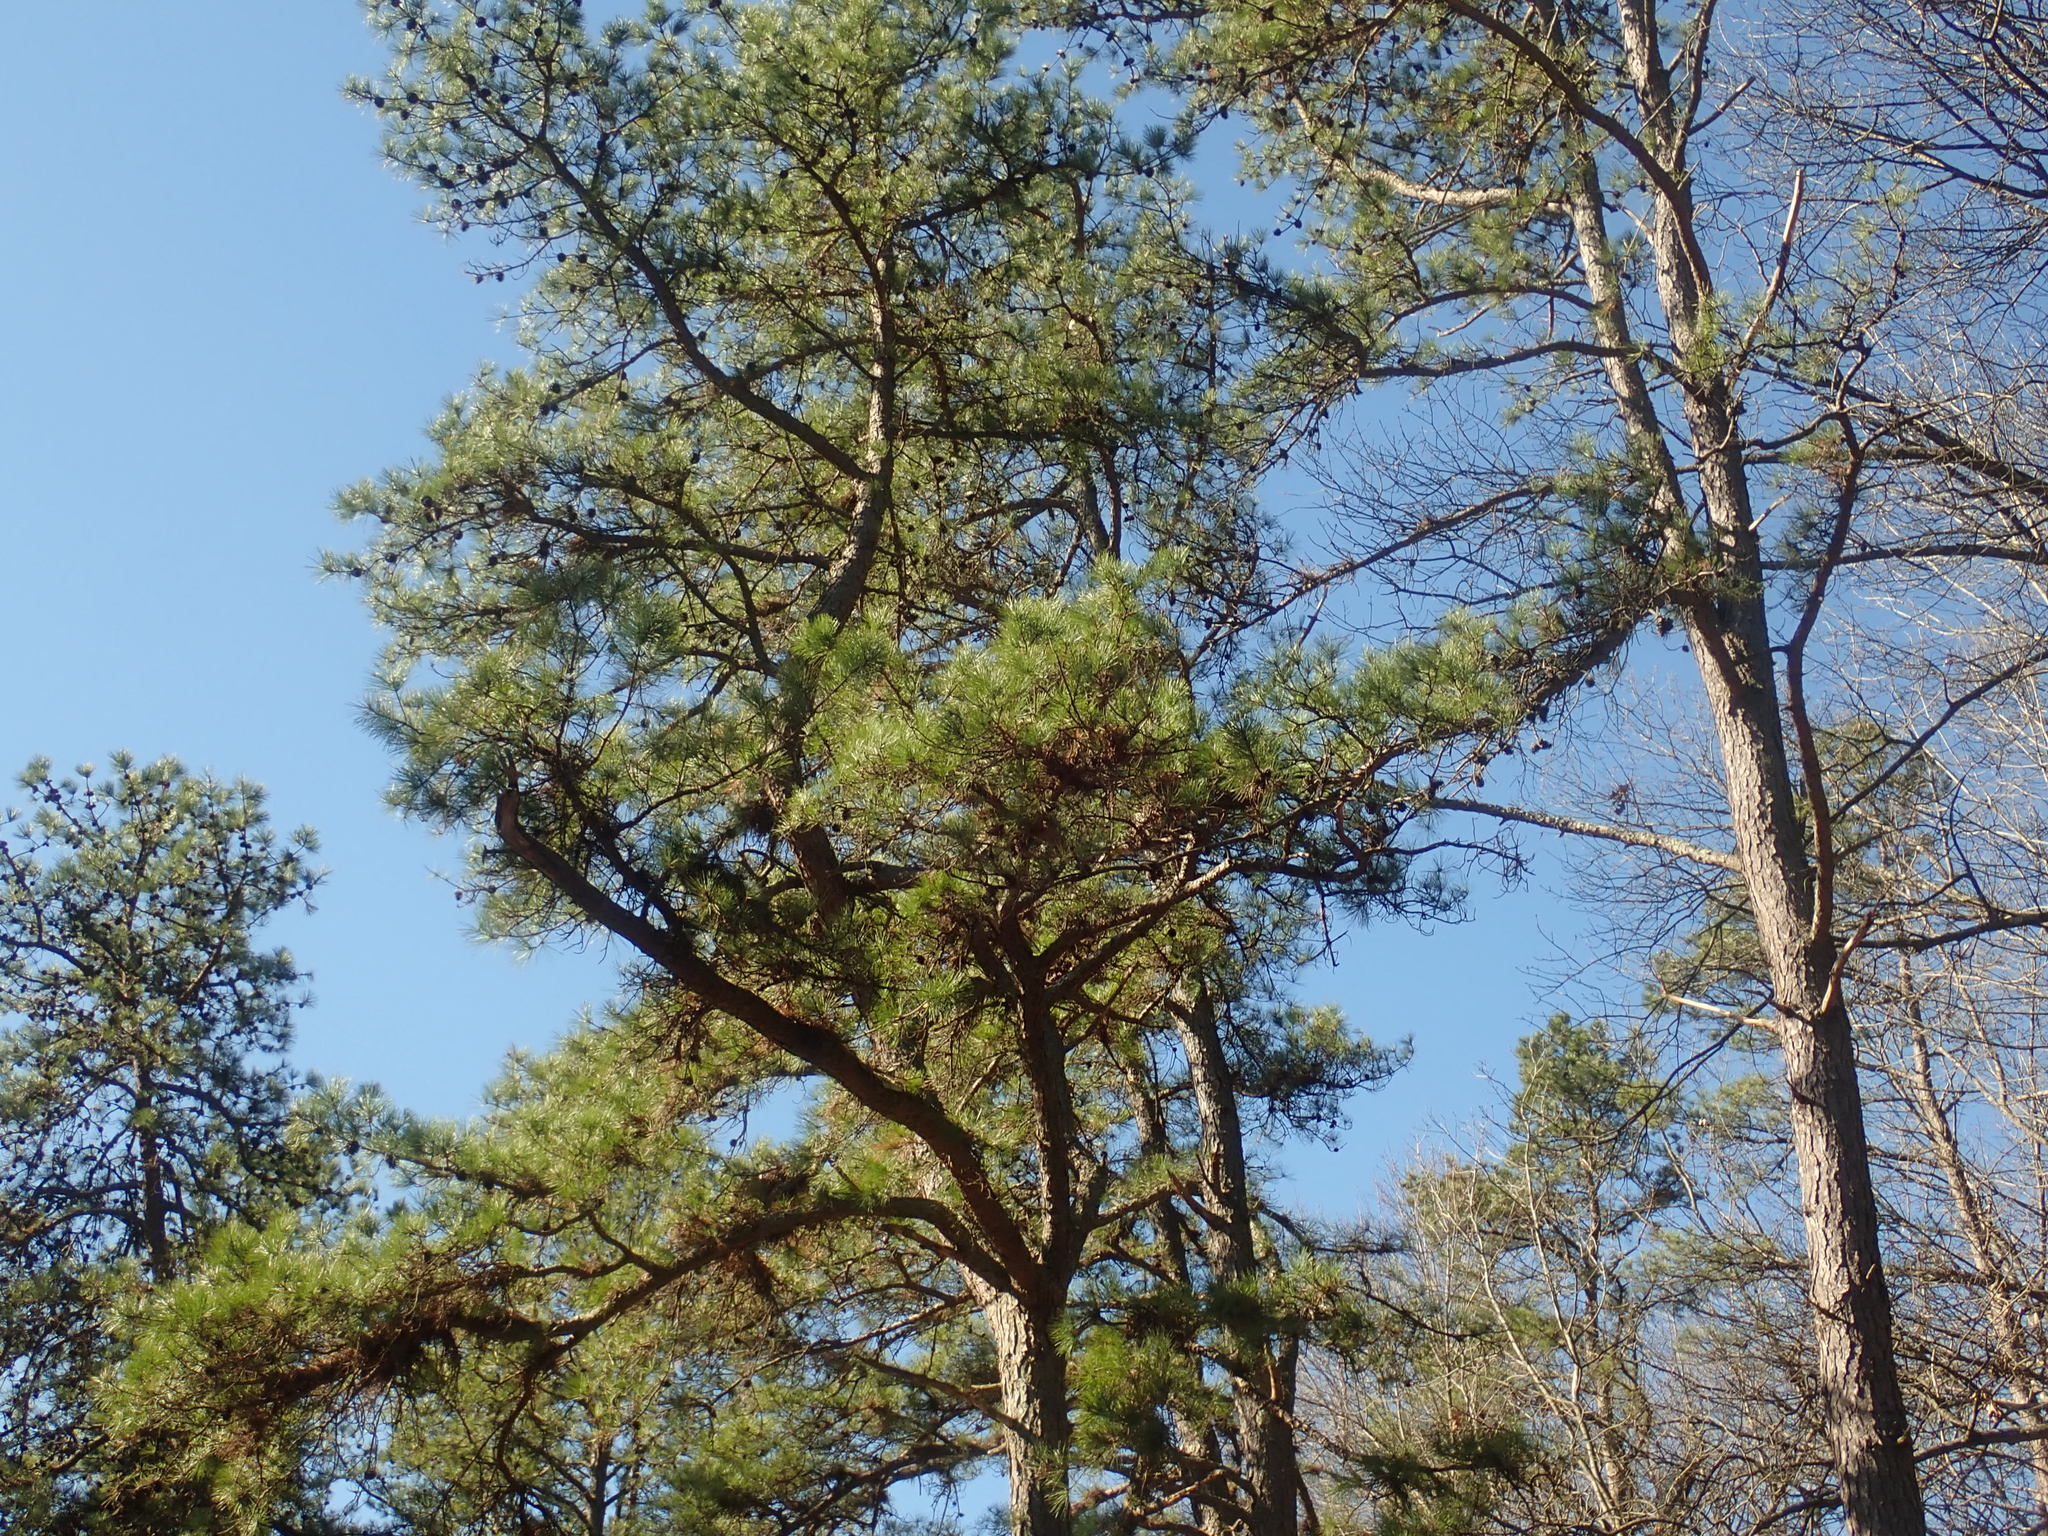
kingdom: Plantae
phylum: Tracheophyta
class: Pinopsida
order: Pinales
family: Pinaceae
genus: Pinus
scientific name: Pinus rigida
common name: Pitch pine
